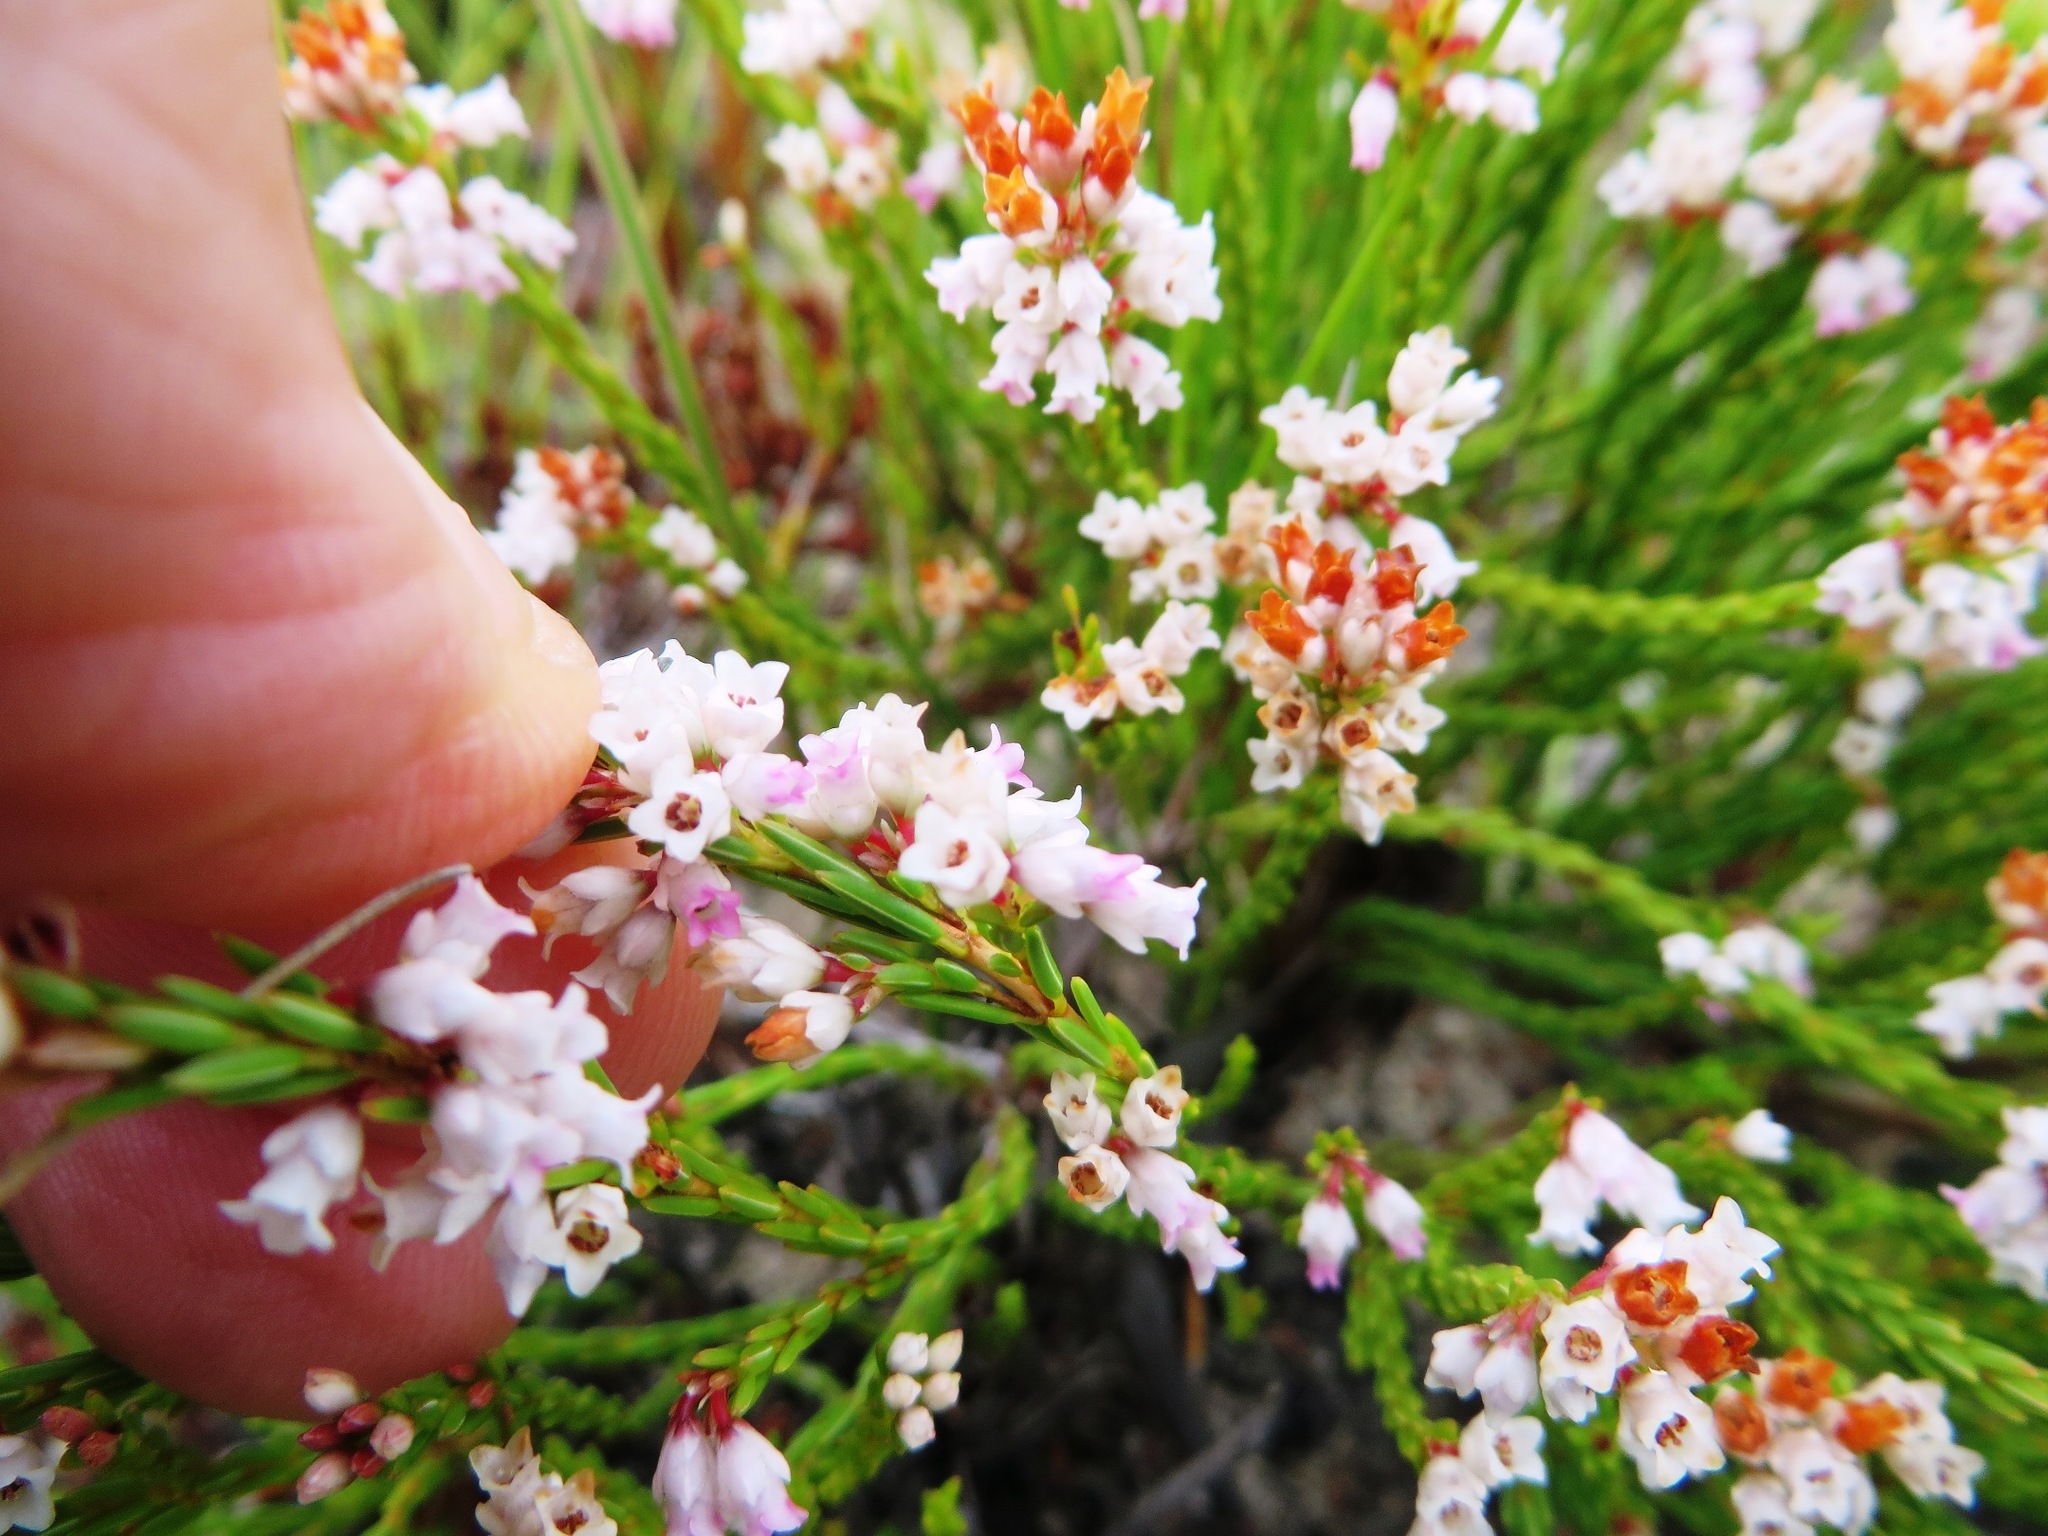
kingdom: Plantae
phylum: Tracheophyta
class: Magnoliopsida
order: Ericales
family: Ericaceae
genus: Erica
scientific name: Erica articularis
